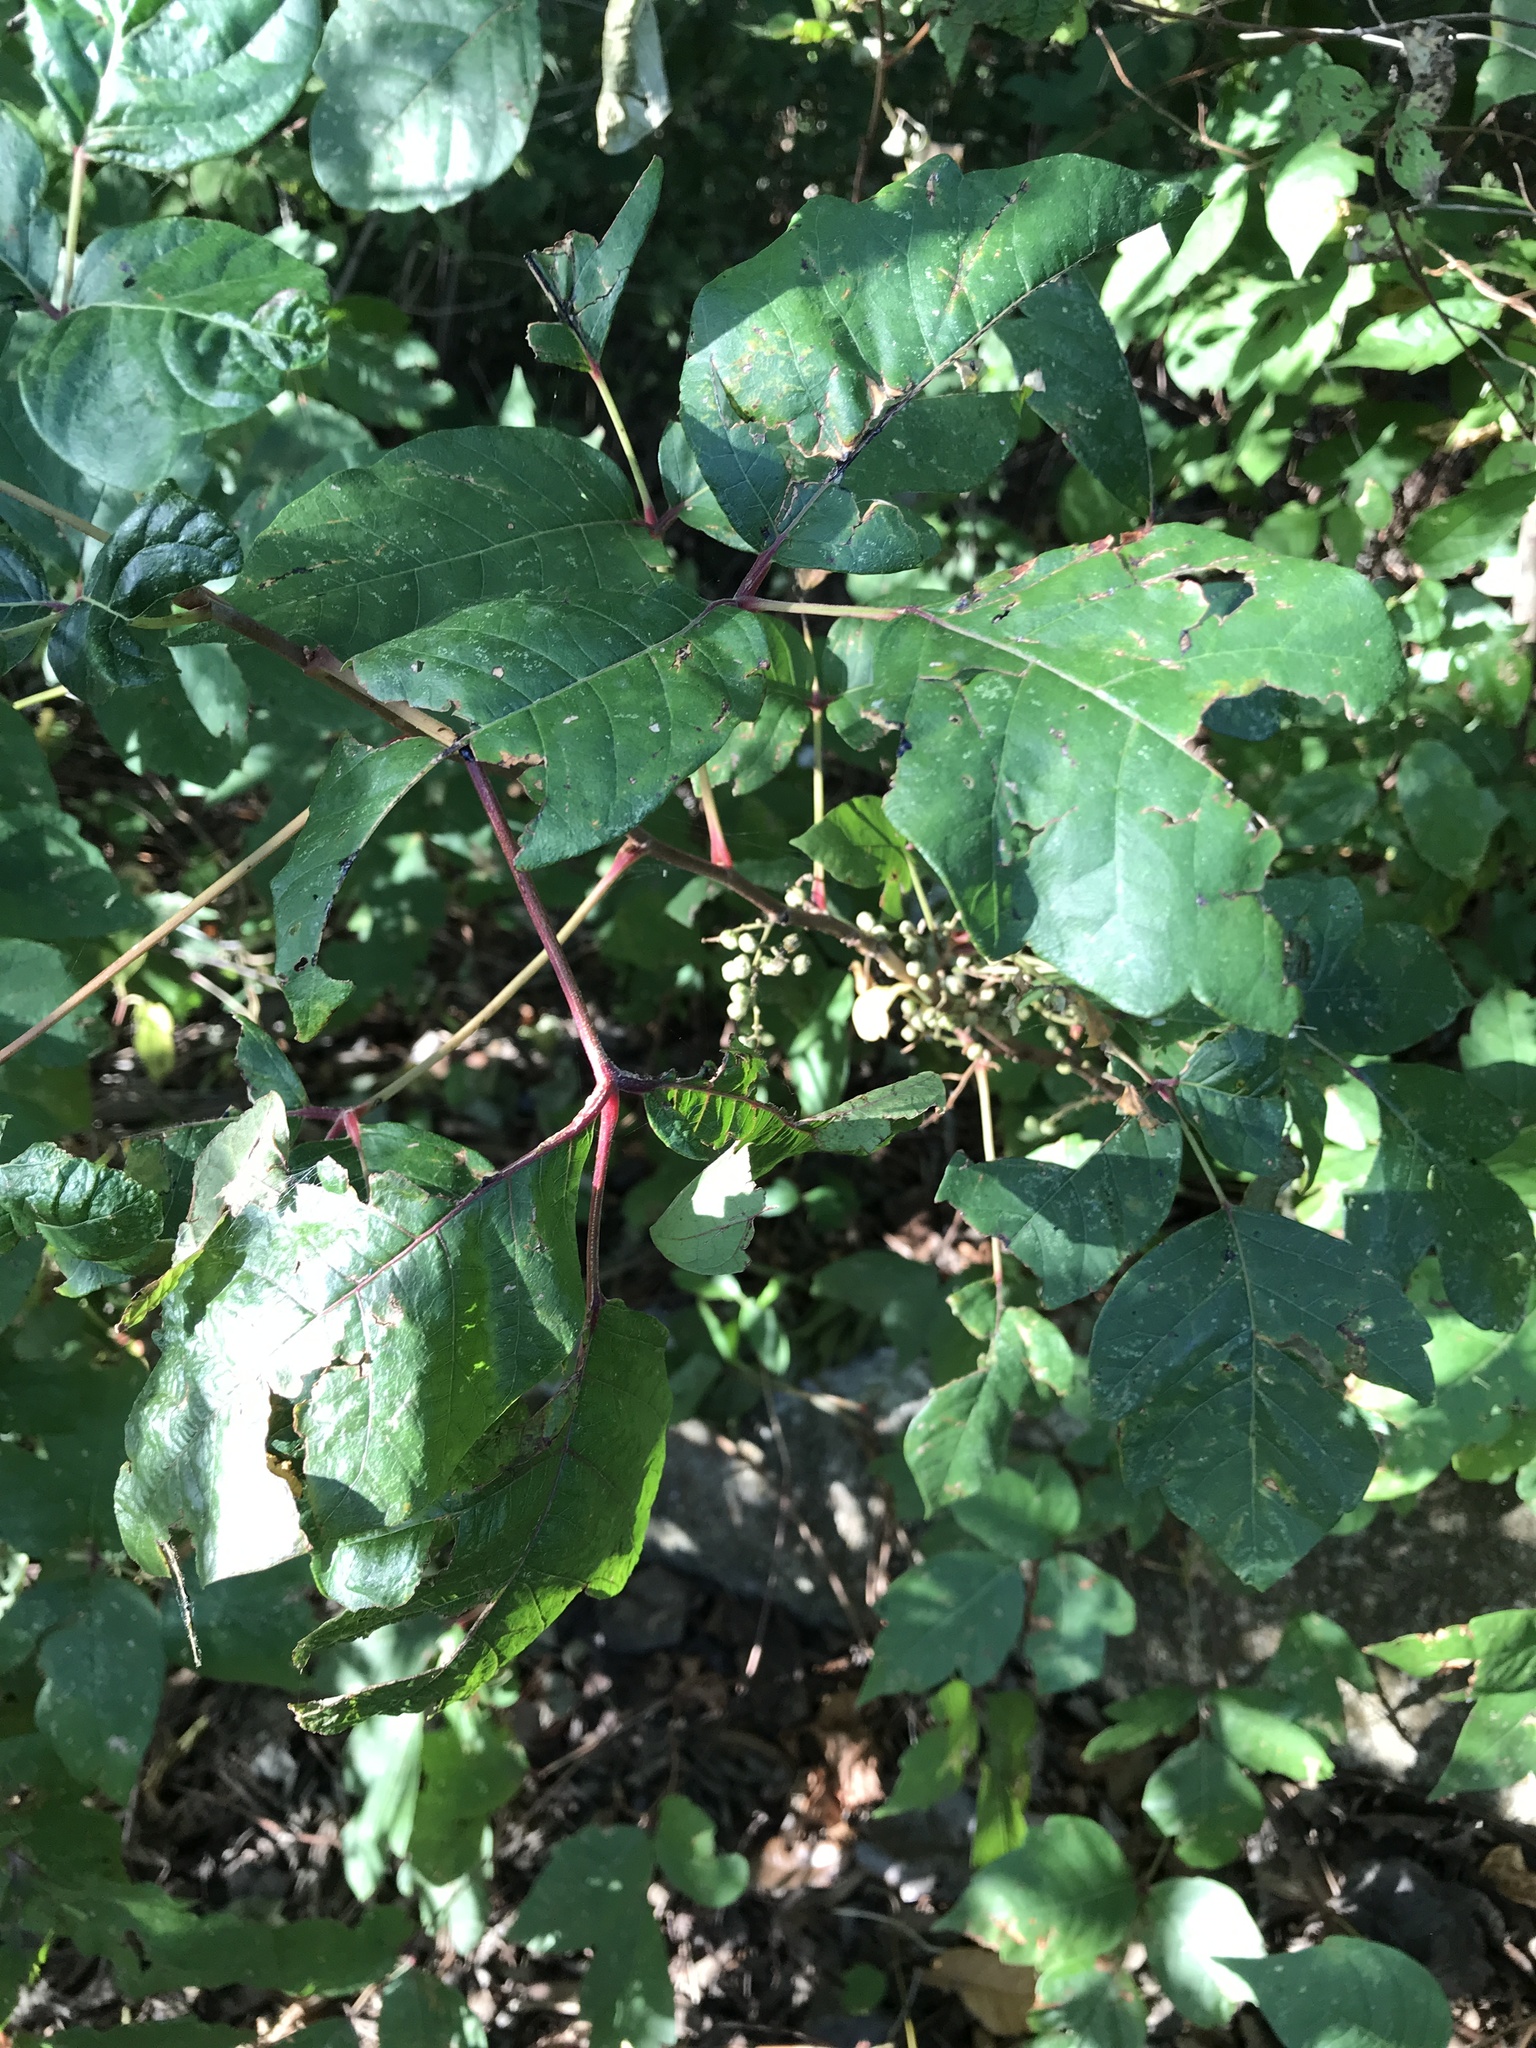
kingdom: Plantae
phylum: Tracheophyta
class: Magnoliopsida
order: Sapindales
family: Anacardiaceae
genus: Toxicodendron
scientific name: Toxicodendron radicans
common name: Poison ivy
